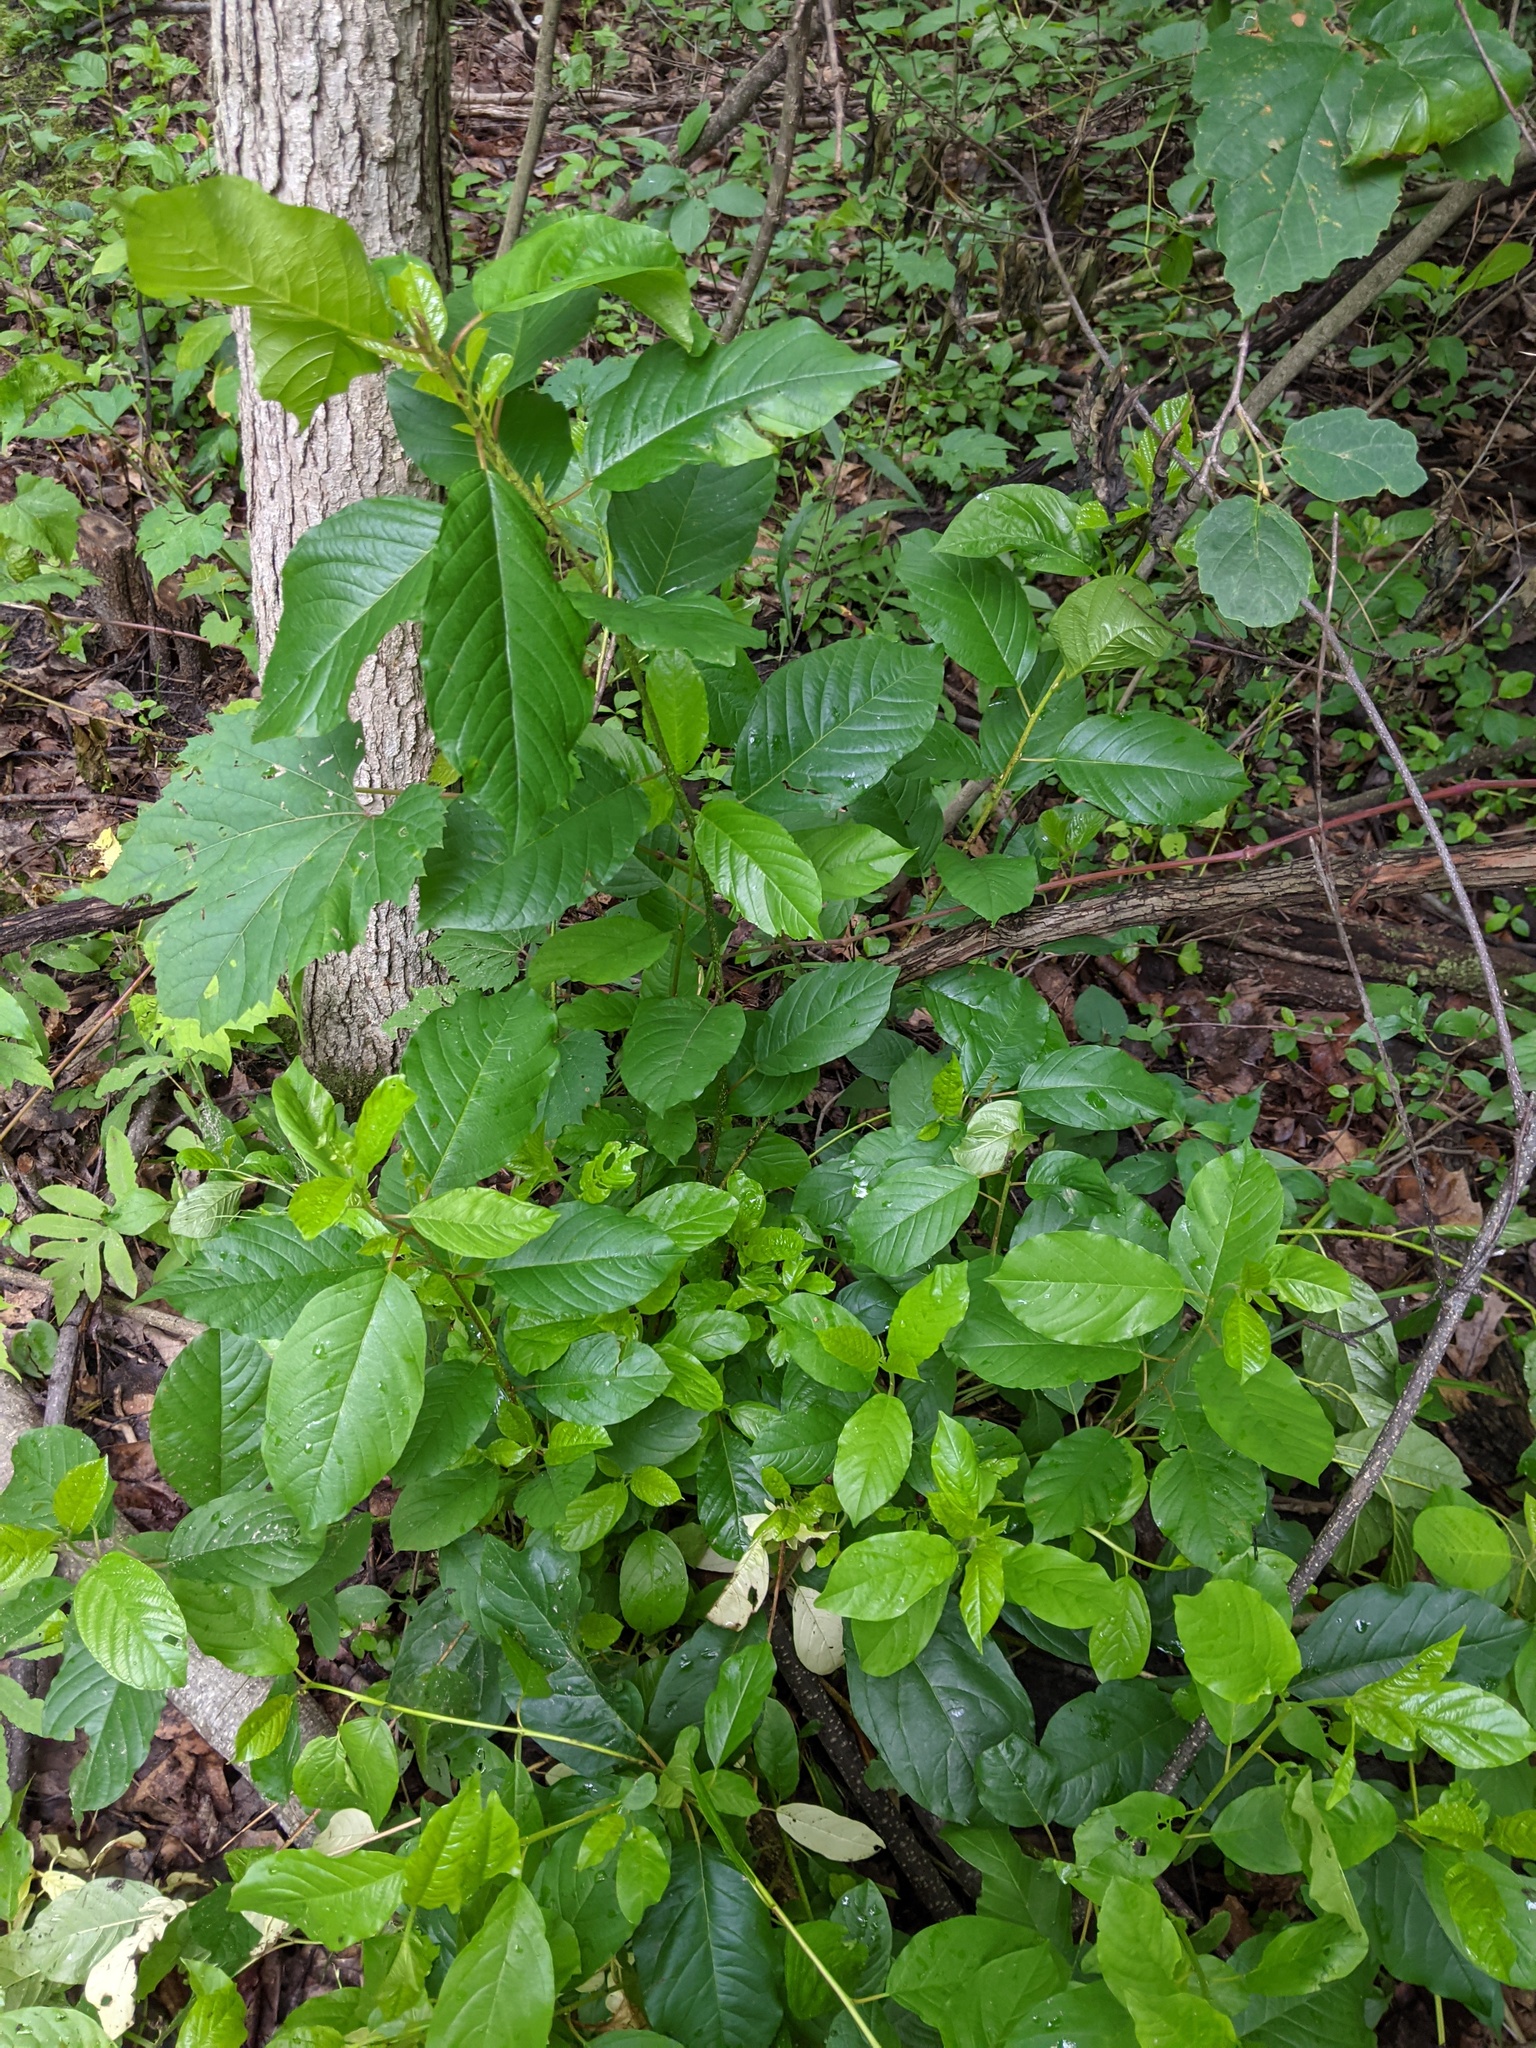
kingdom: Plantae
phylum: Tracheophyta
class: Magnoliopsida
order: Rosales
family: Rhamnaceae
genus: Frangula
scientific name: Frangula alnus
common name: Alder buckthorn
